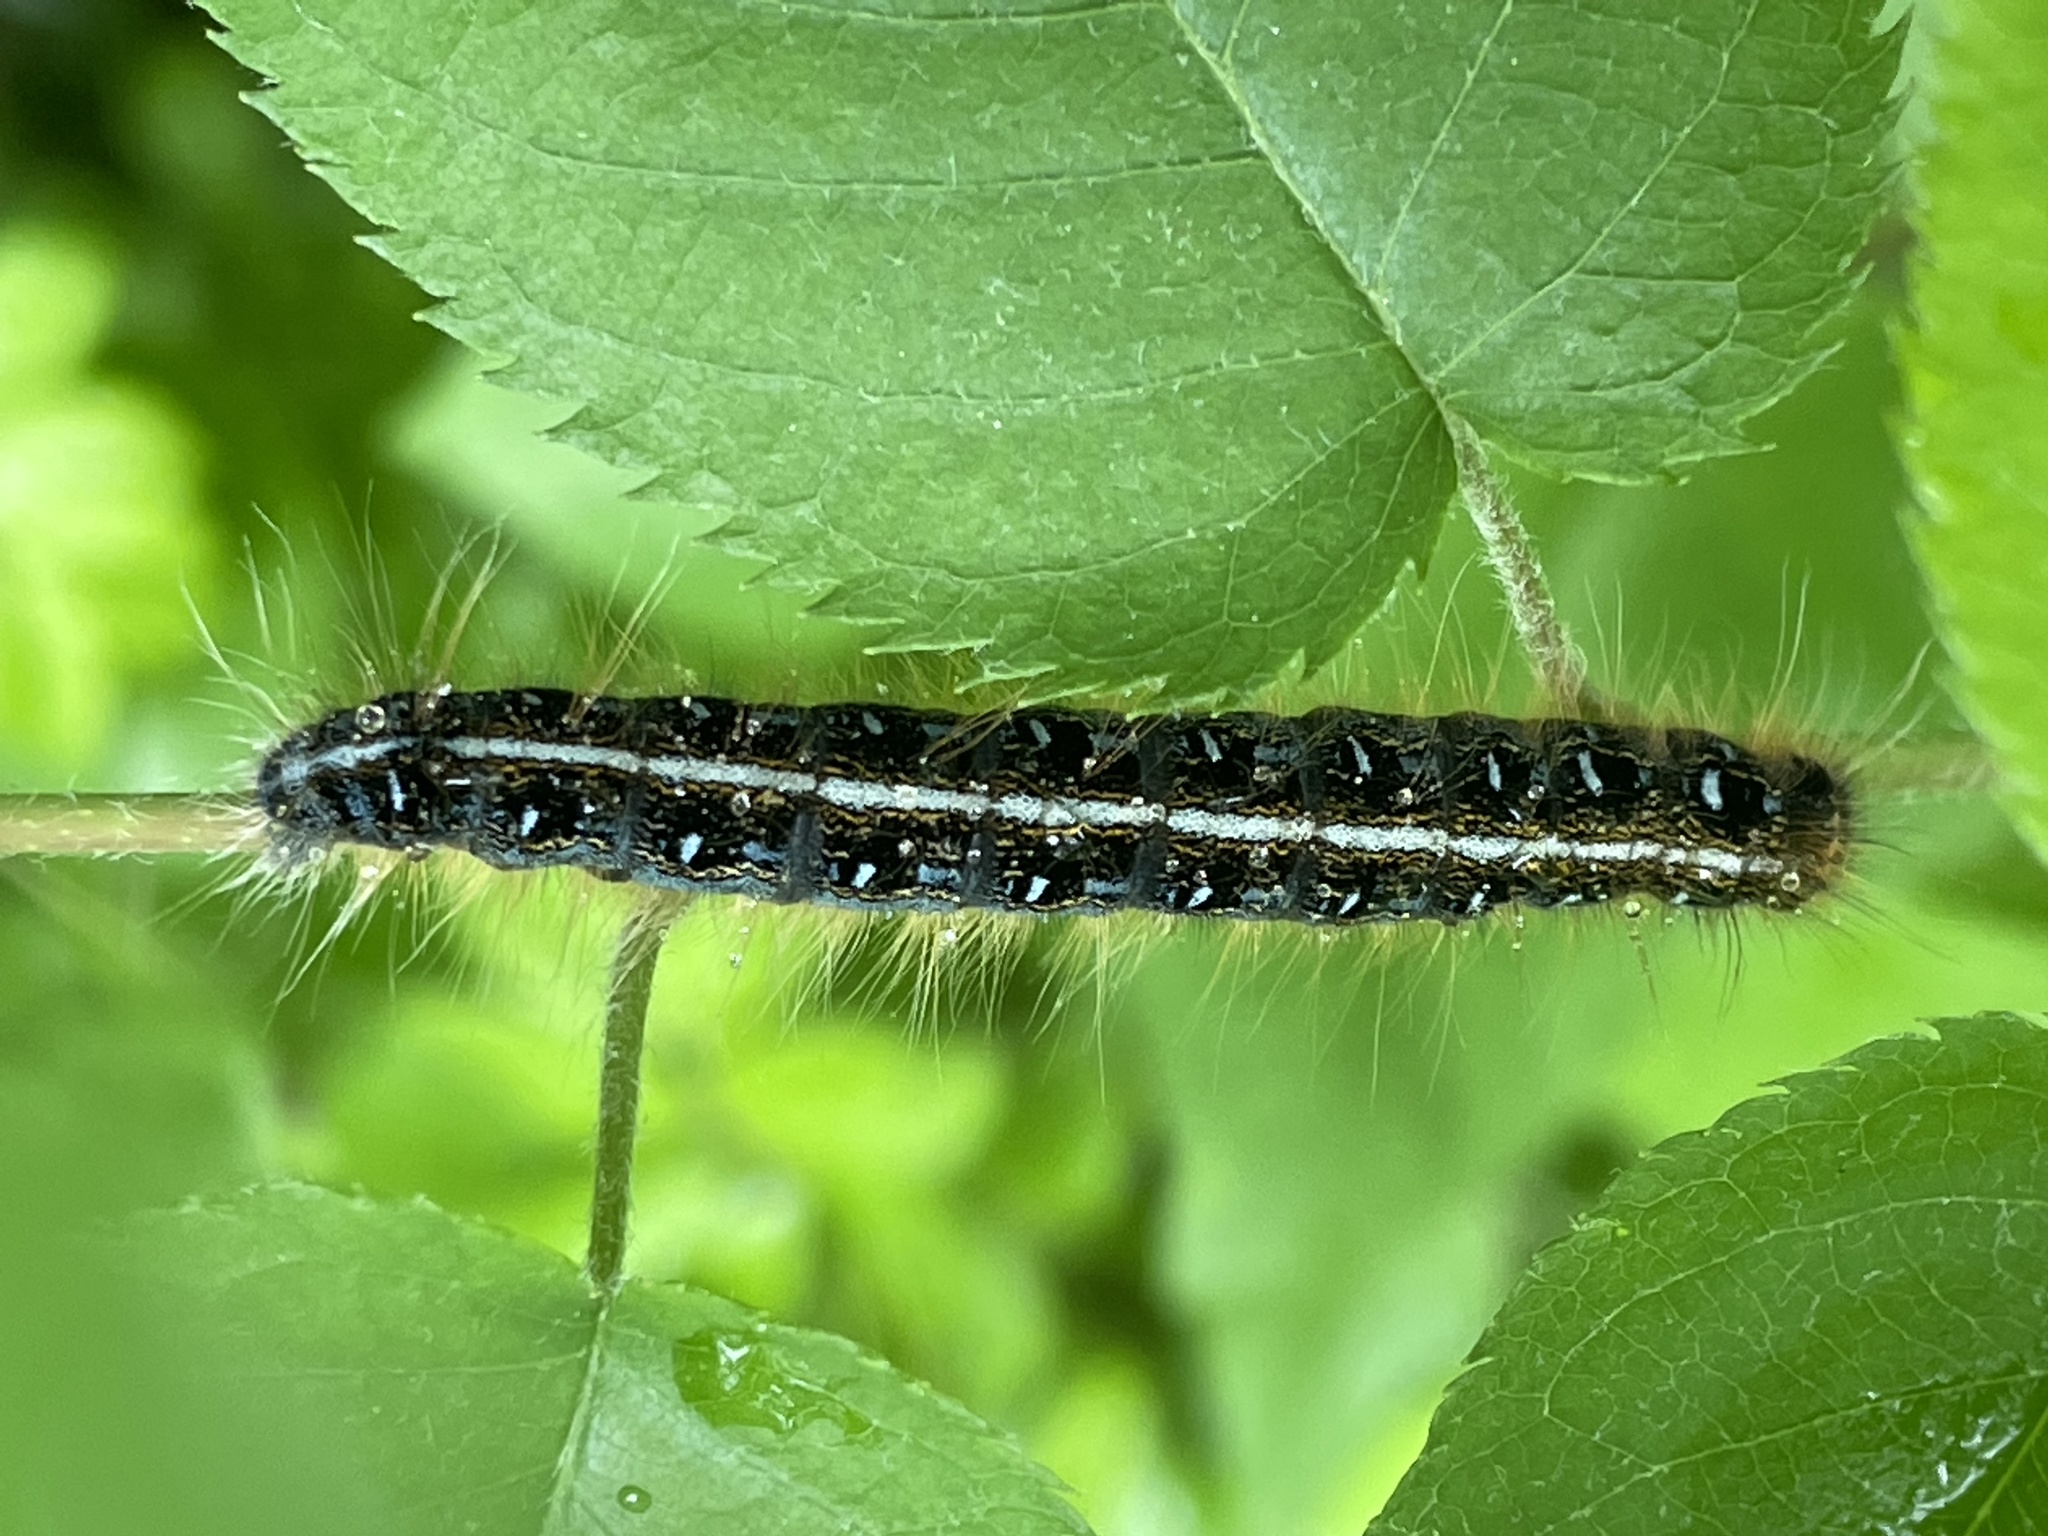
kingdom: Animalia
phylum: Arthropoda
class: Insecta
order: Lepidoptera
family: Lasiocampidae
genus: Malacosoma
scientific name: Malacosoma americana
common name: Eastern tent caterpillar moth
